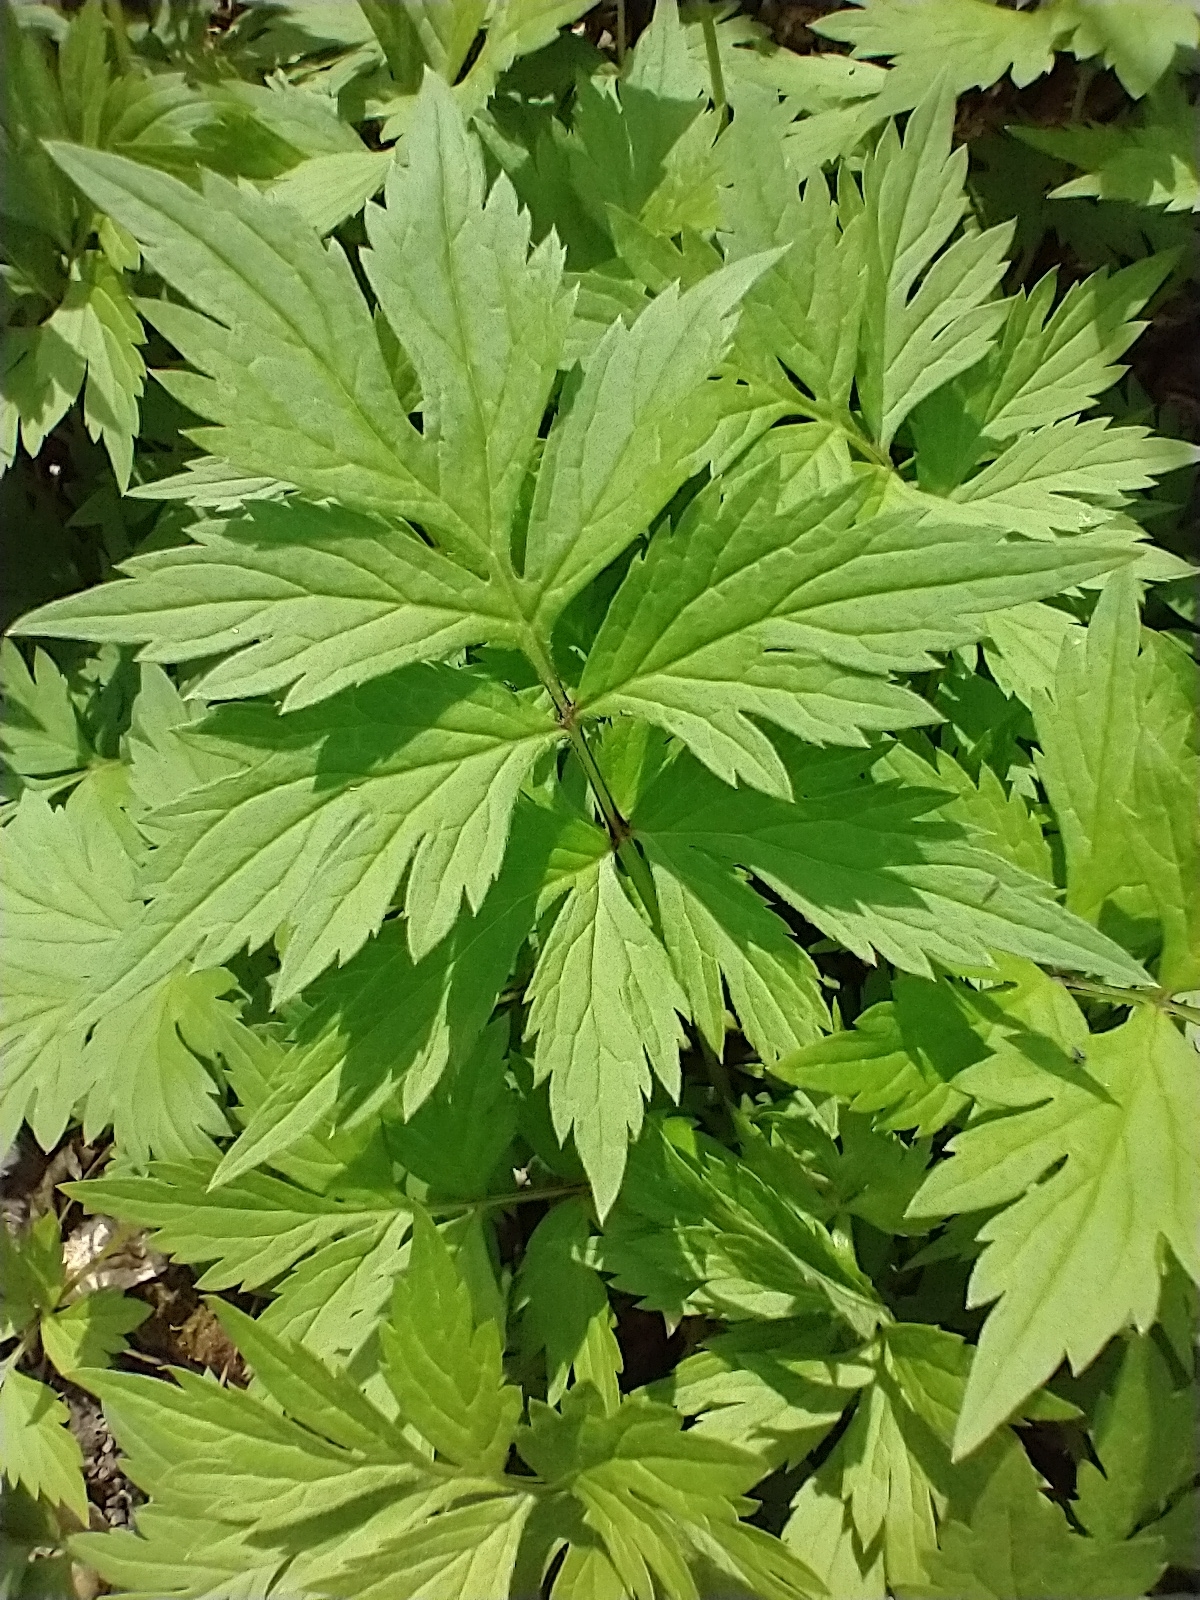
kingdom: Plantae
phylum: Tracheophyta
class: Magnoliopsida
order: Boraginales
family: Hydrophyllaceae
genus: Hydrophyllum
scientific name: Hydrophyllum virginianum
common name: Virginia waterleaf
